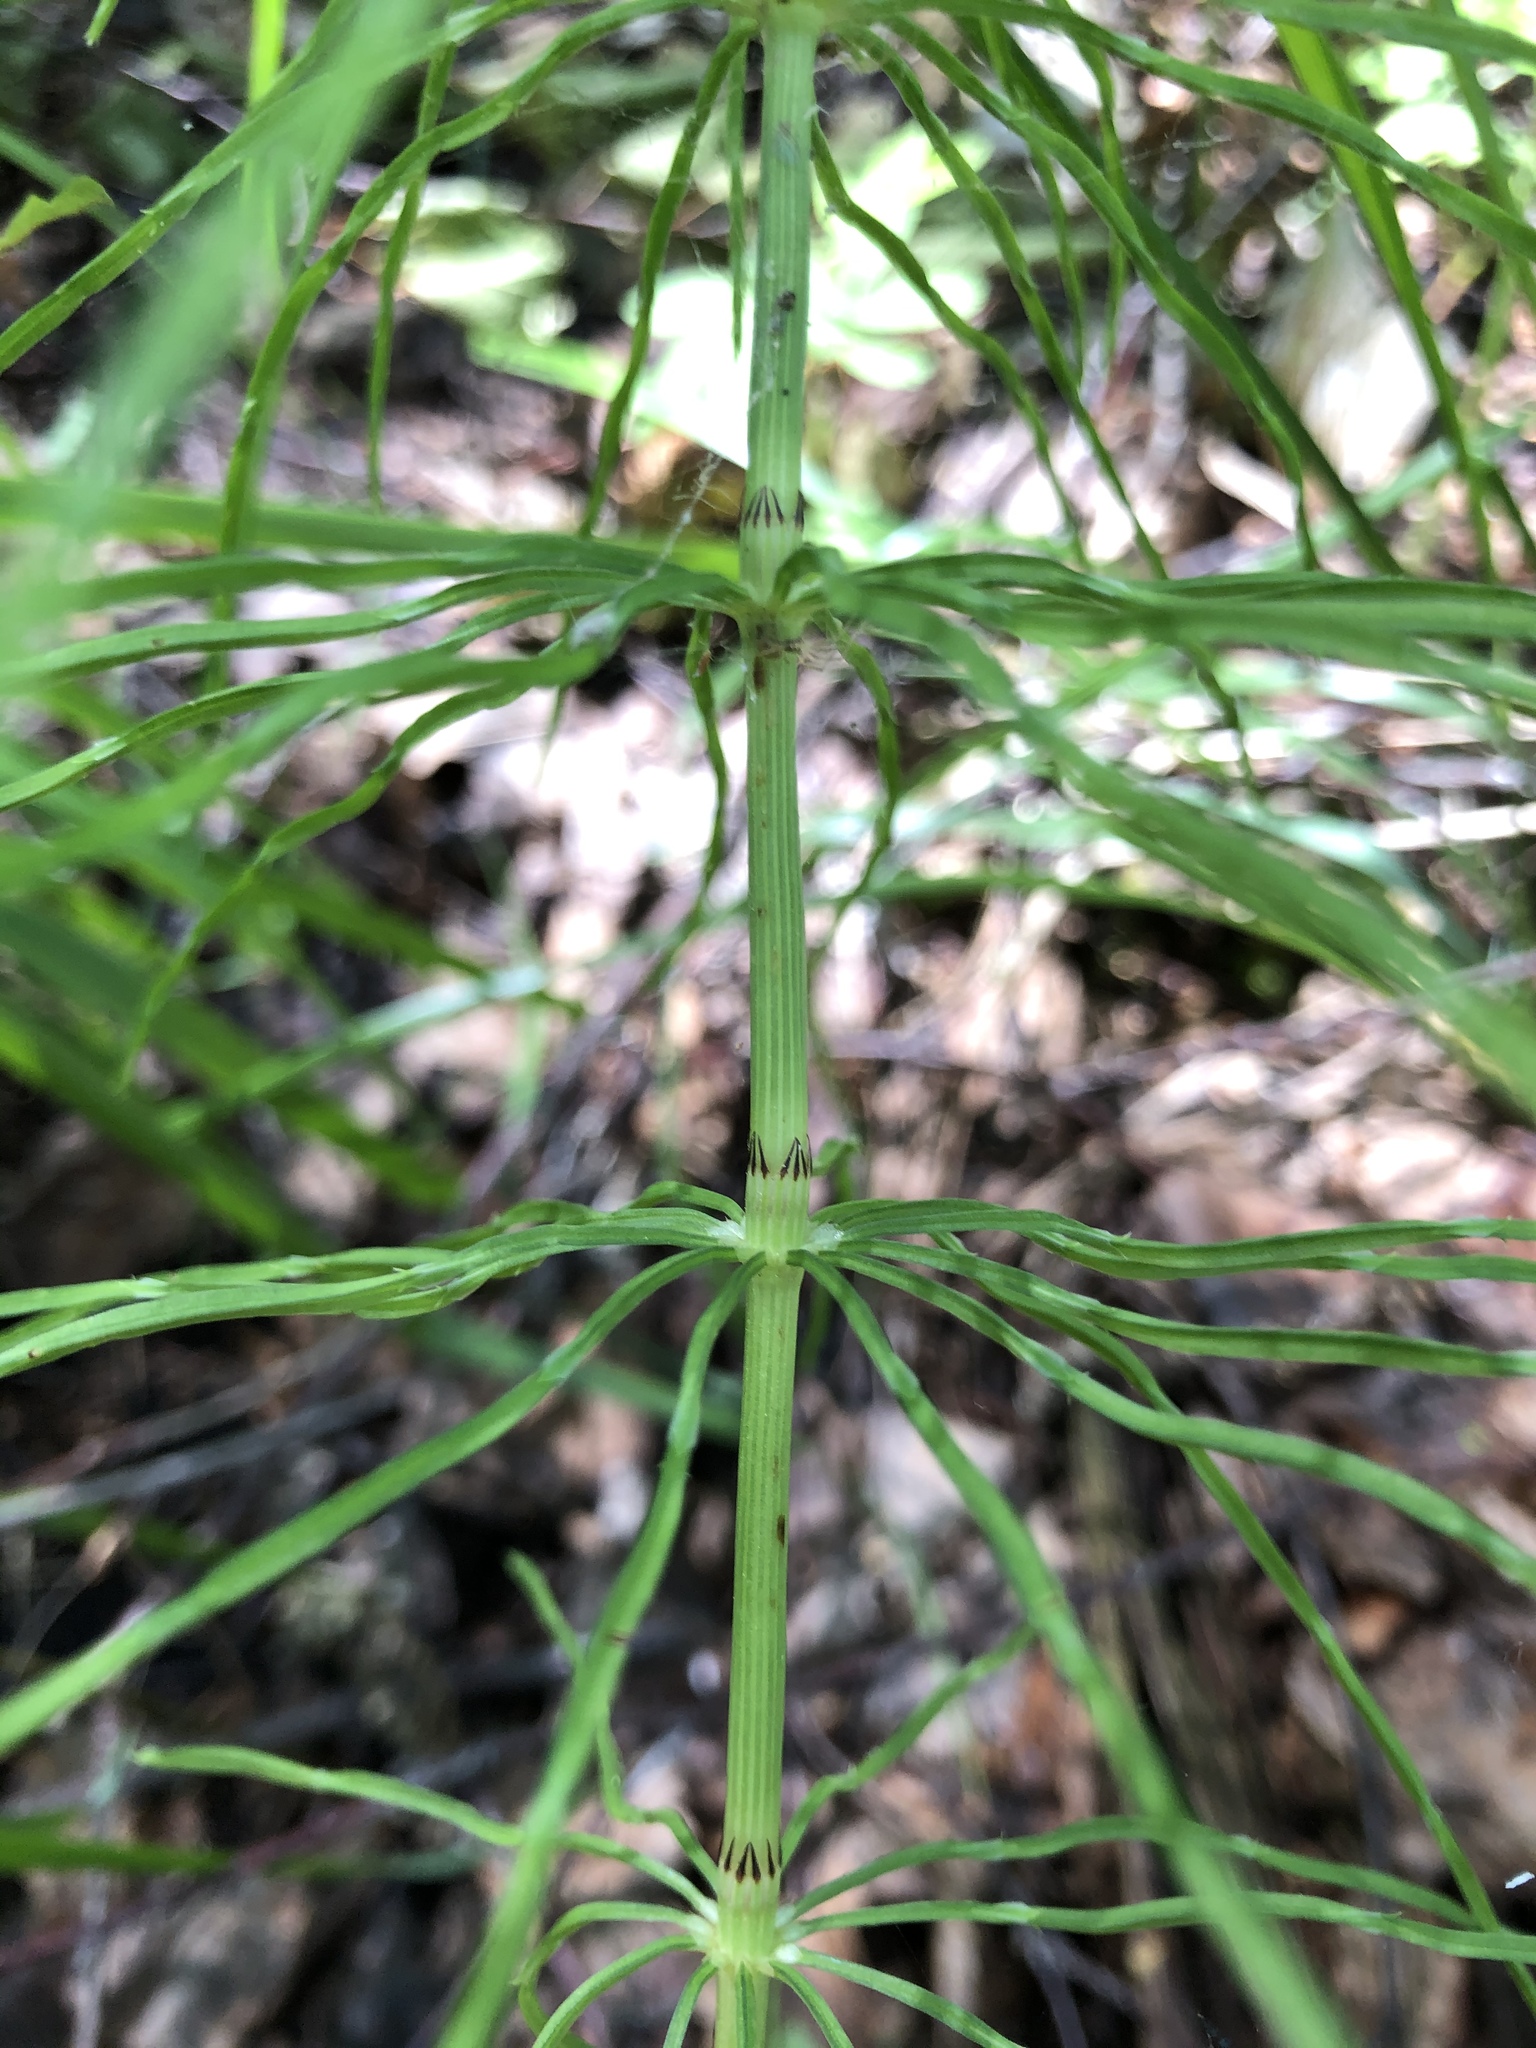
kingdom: Plantae
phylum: Tracheophyta
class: Polypodiopsida
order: Equisetales
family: Equisetaceae
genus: Equisetum
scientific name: Equisetum arvense
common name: Field horsetail
